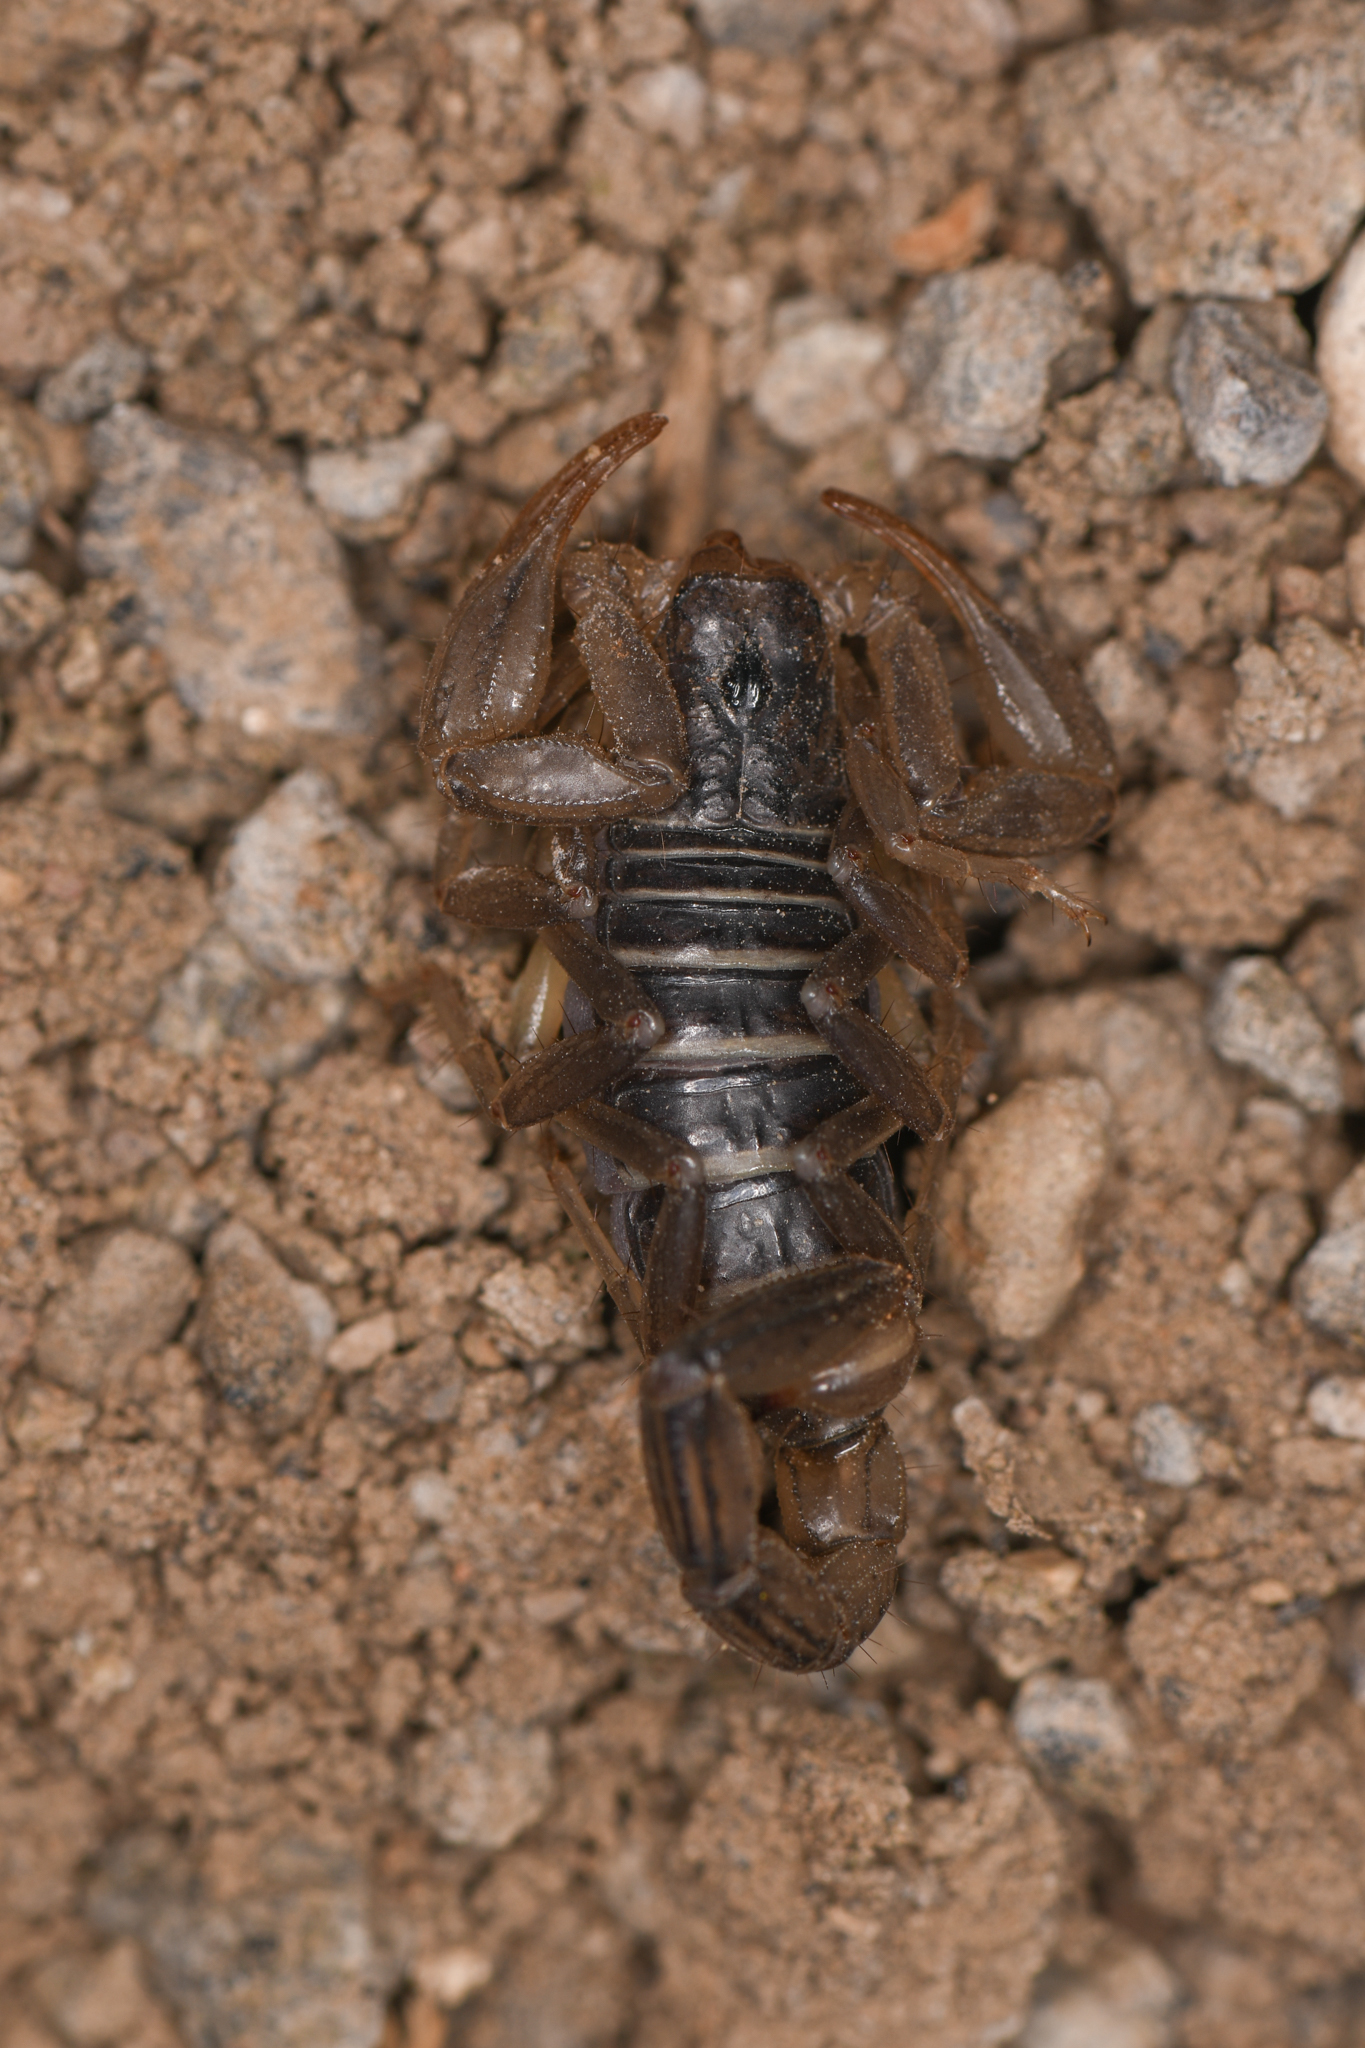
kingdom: Animalia
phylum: Arthropoda
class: Arachnida
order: Scorpiones
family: Vaejovidae
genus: Paruroctonus
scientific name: Paruroctonus boreus
